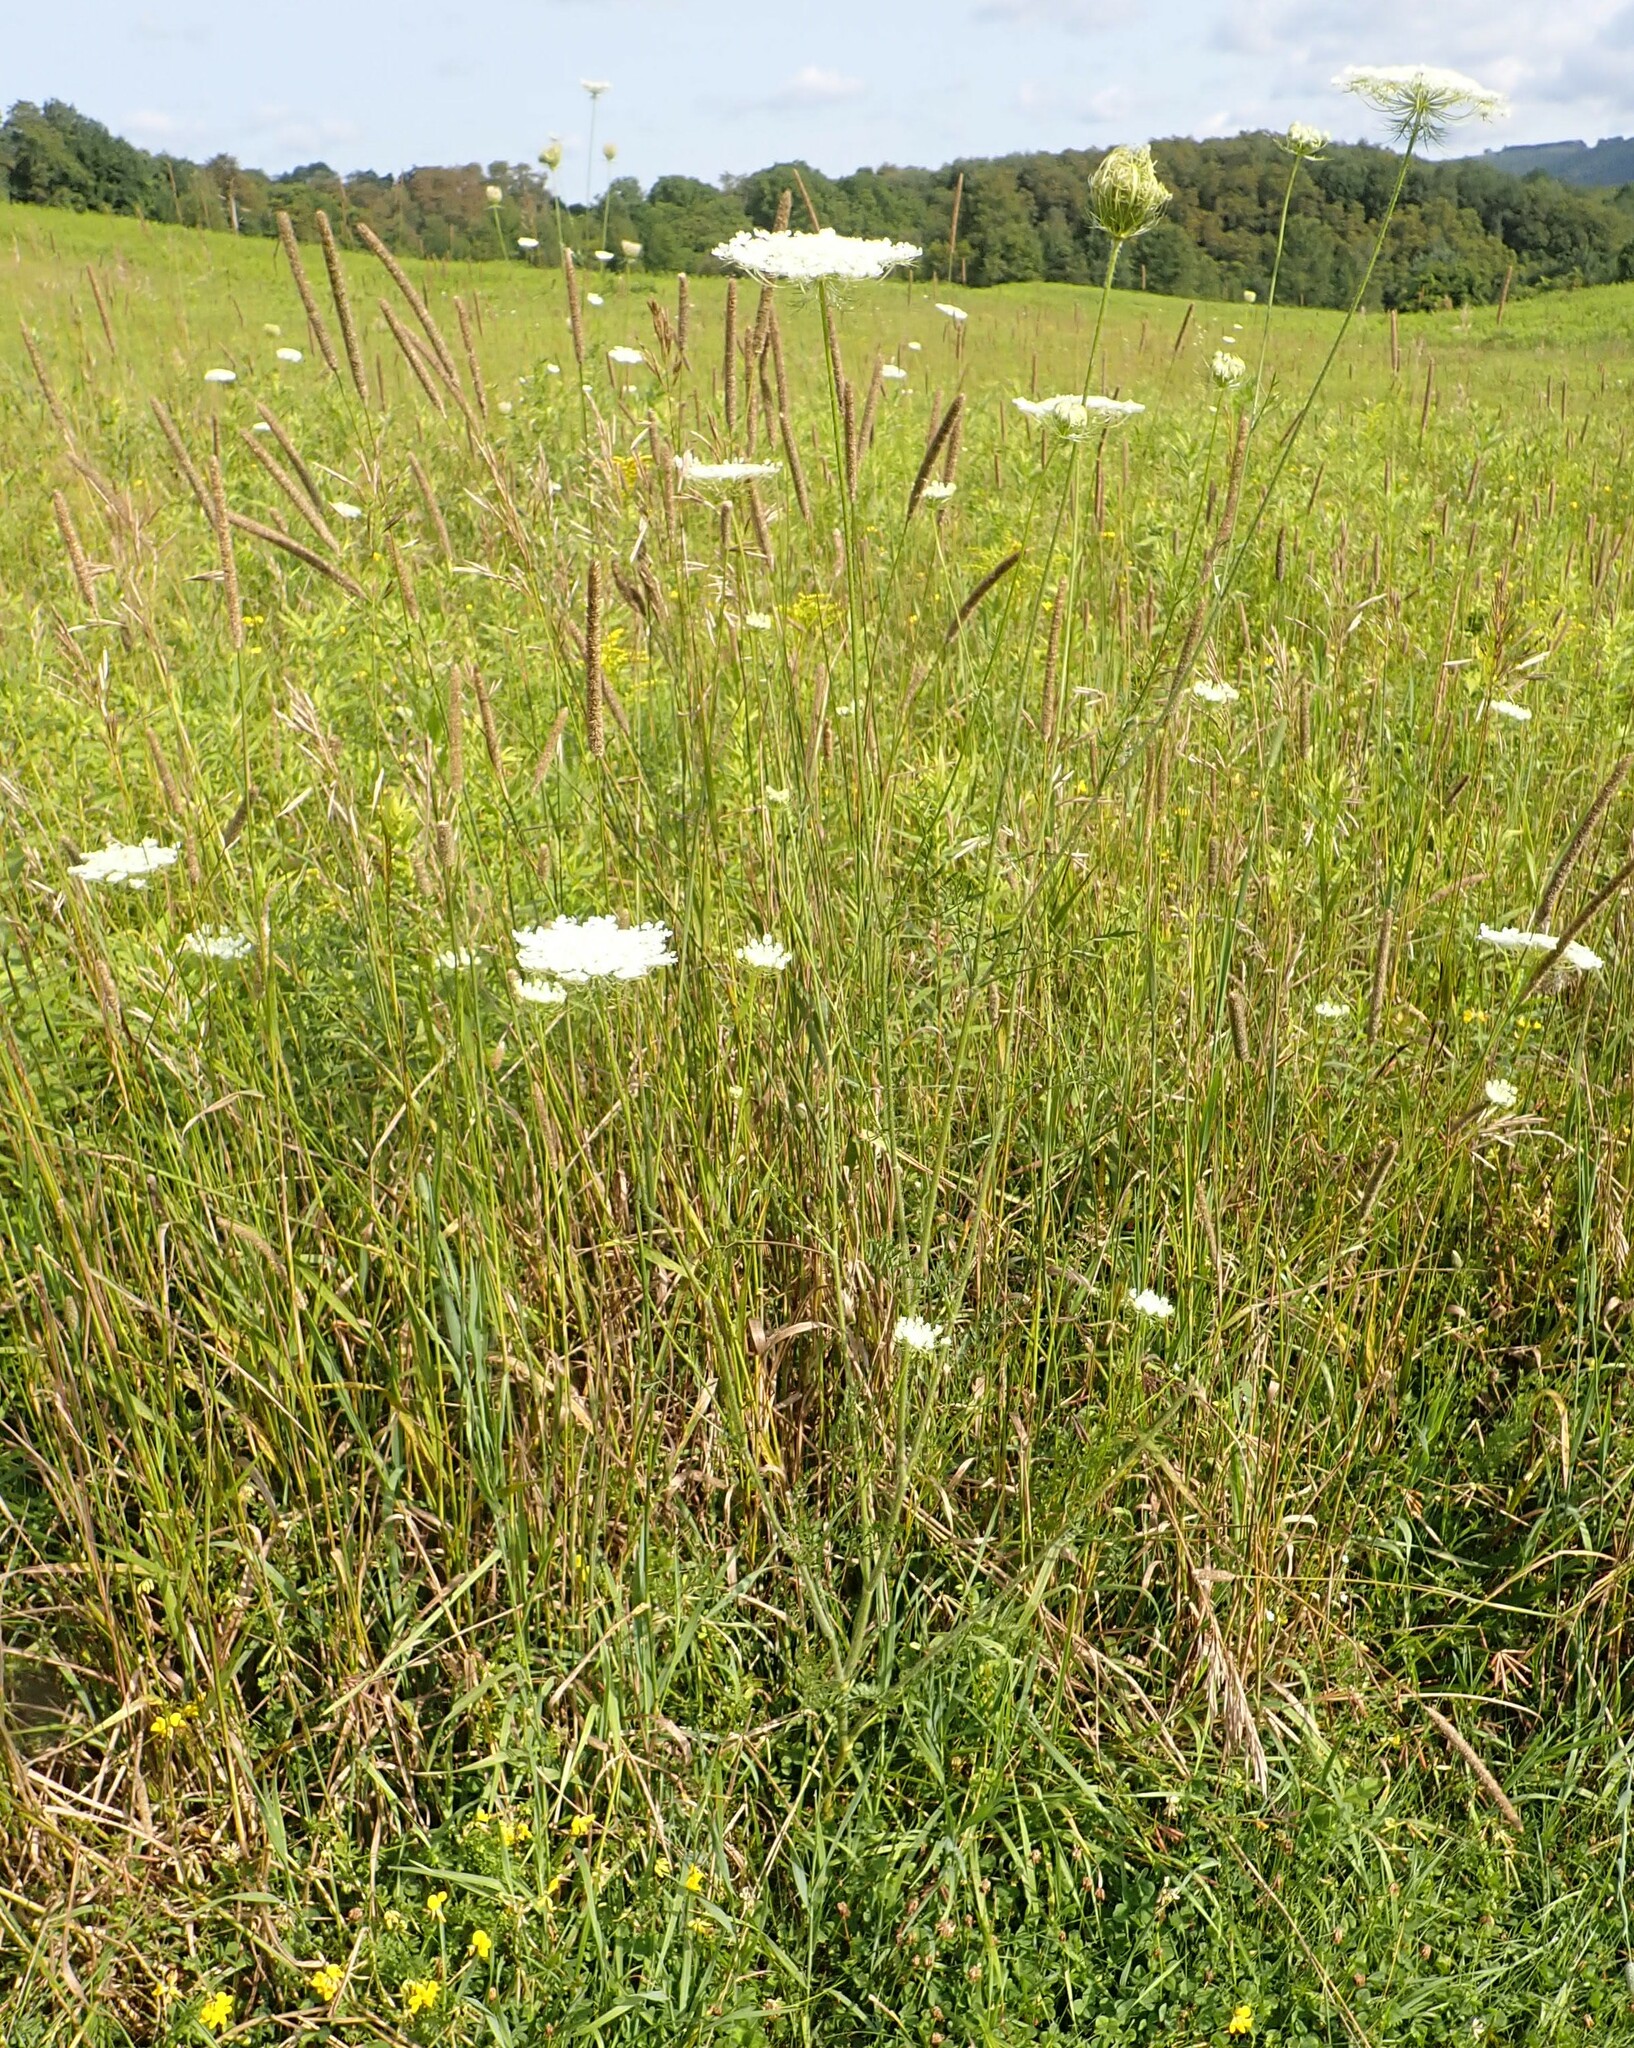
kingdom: Plantae
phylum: Tracheophyta
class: Magnoliopsida
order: Apiales
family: Apiaceae
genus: Daucus
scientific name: Daucus carota
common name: Wild carrot
